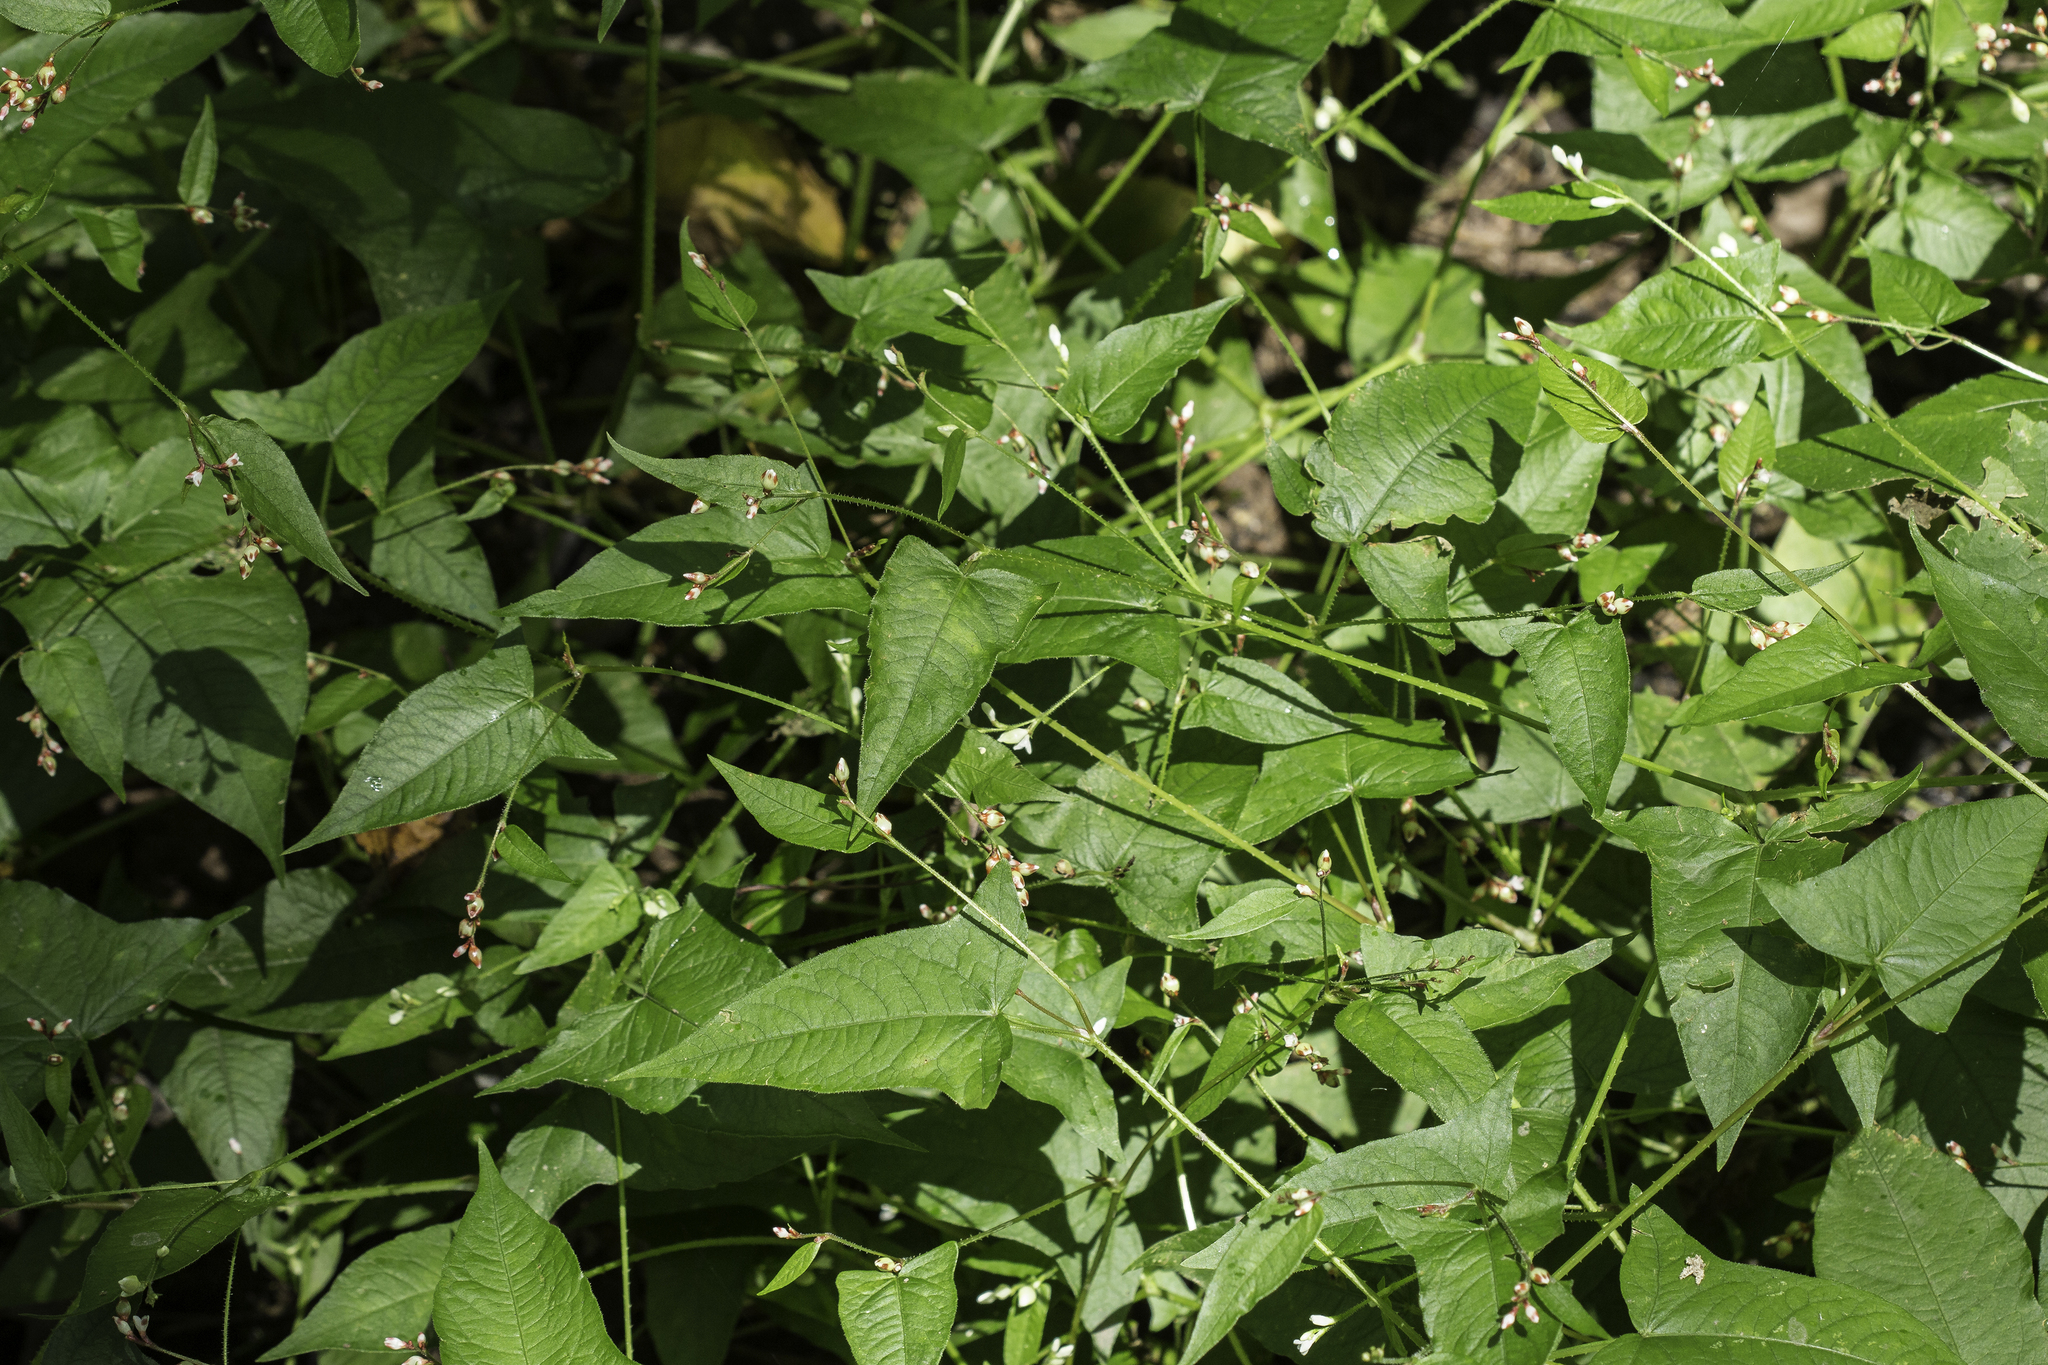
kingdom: Plantae
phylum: Tracheophyta
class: Magnoliopsida
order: Caryophyllales
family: Polygonaceae
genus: Persicaria
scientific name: Persicaria arifolia
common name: Halberd-leaved tear-thumb
